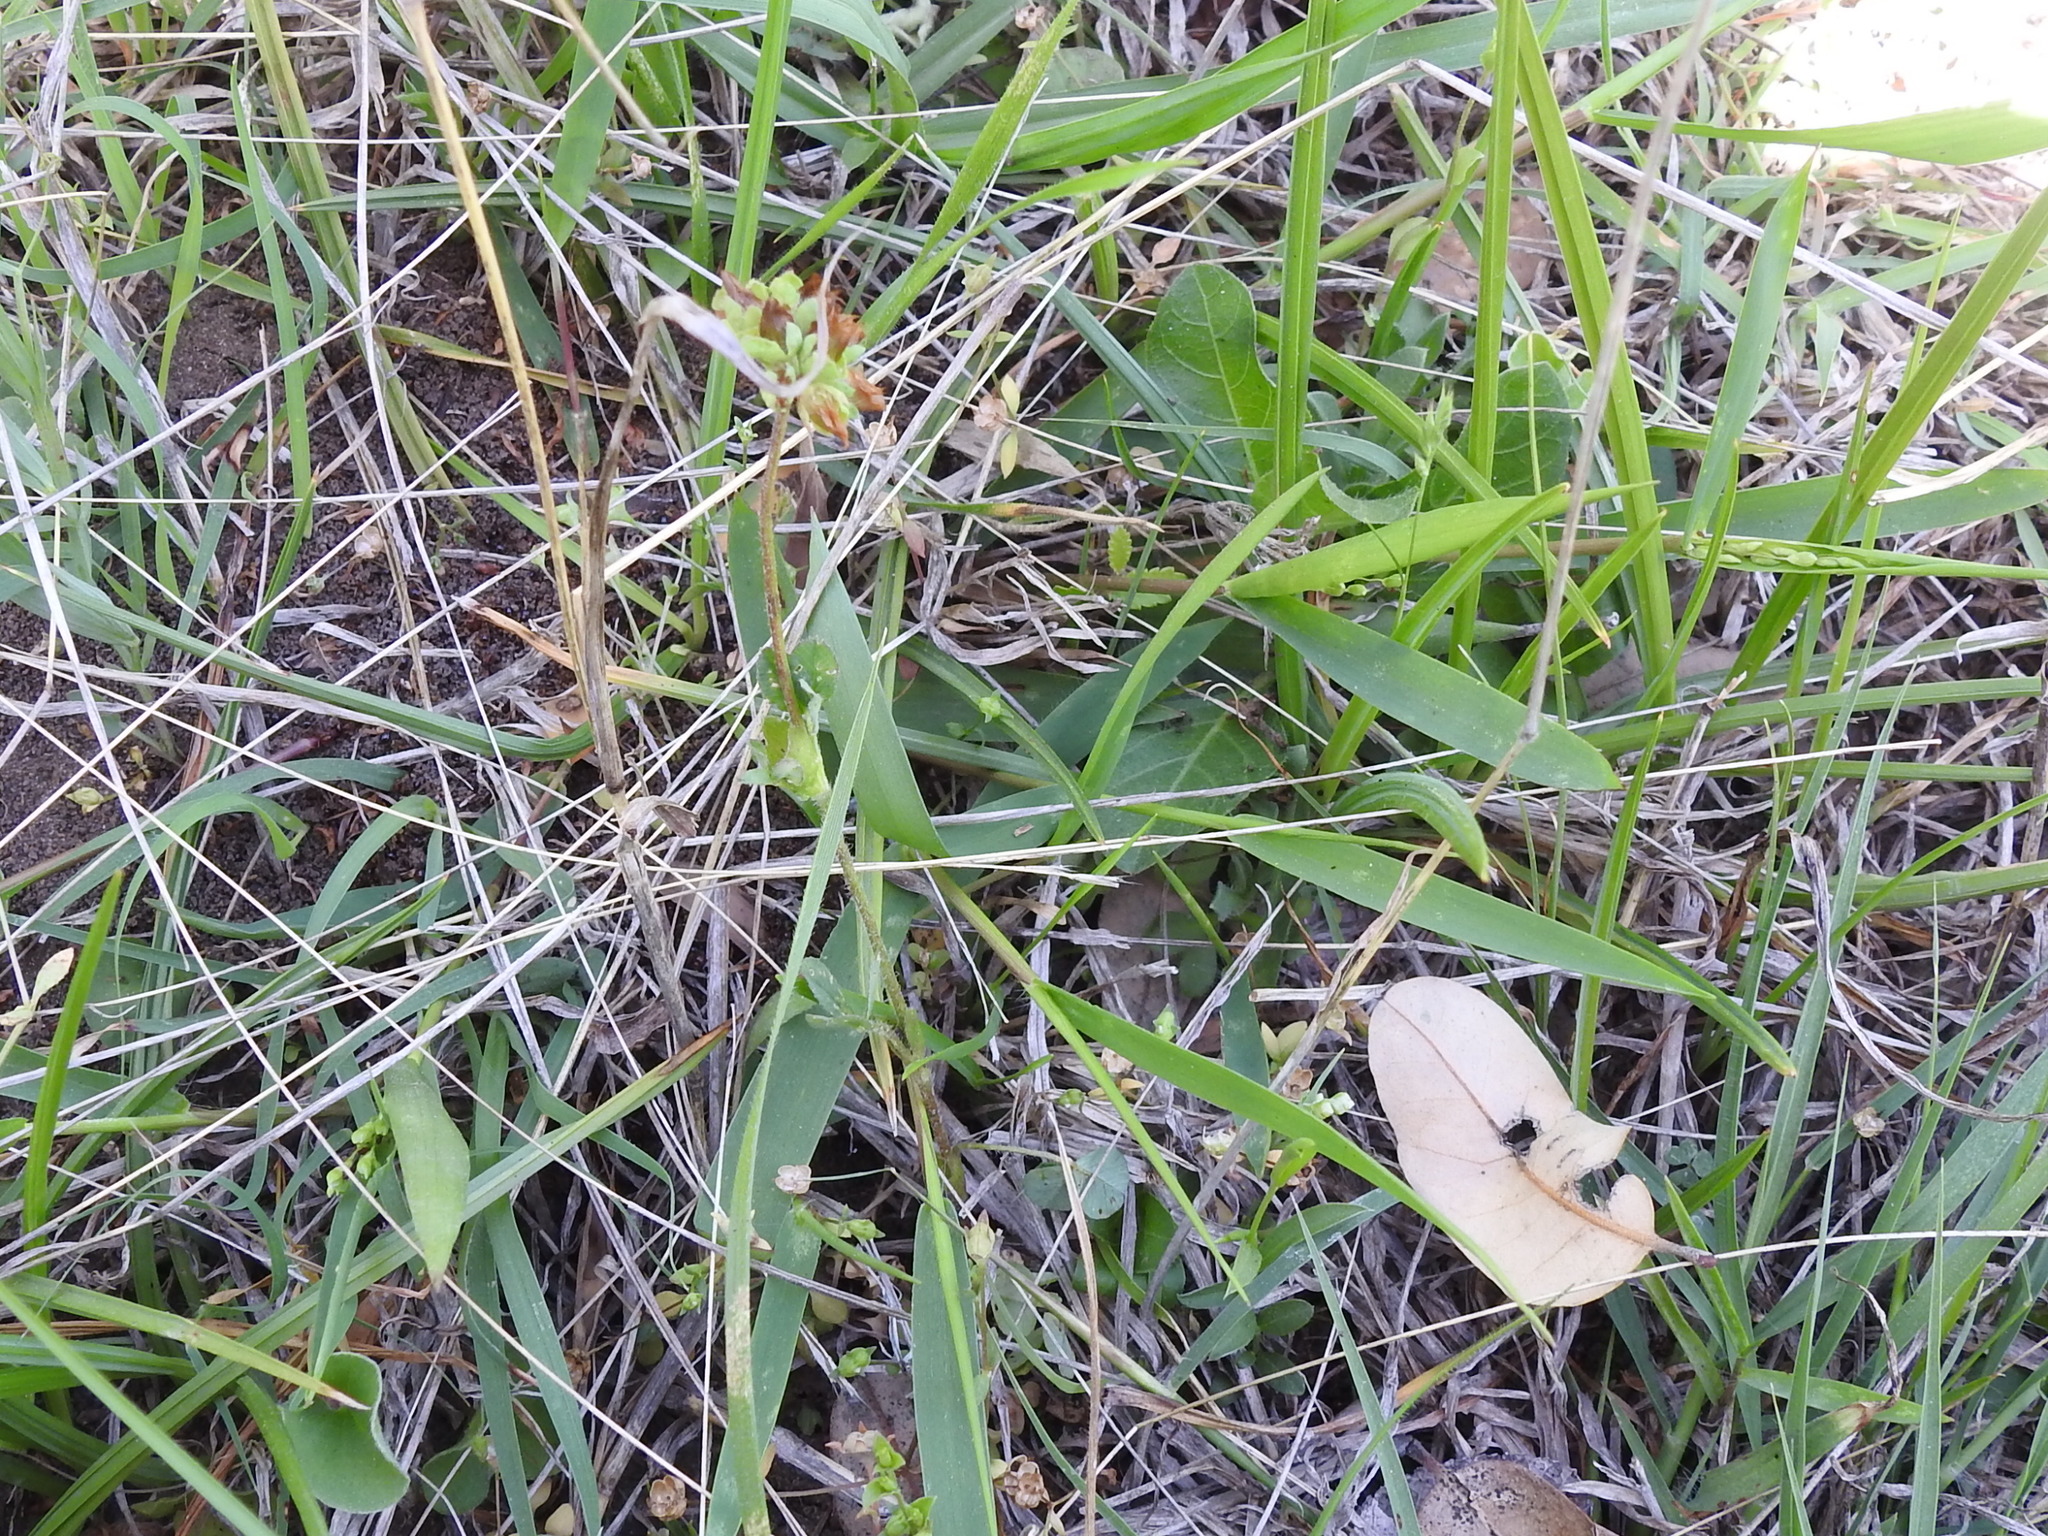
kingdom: Plantae
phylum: Tracheophyta
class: Magnoliopsida
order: Fabales
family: Fabaceae
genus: Pediomelum
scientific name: Pediomelum rhombifolium
